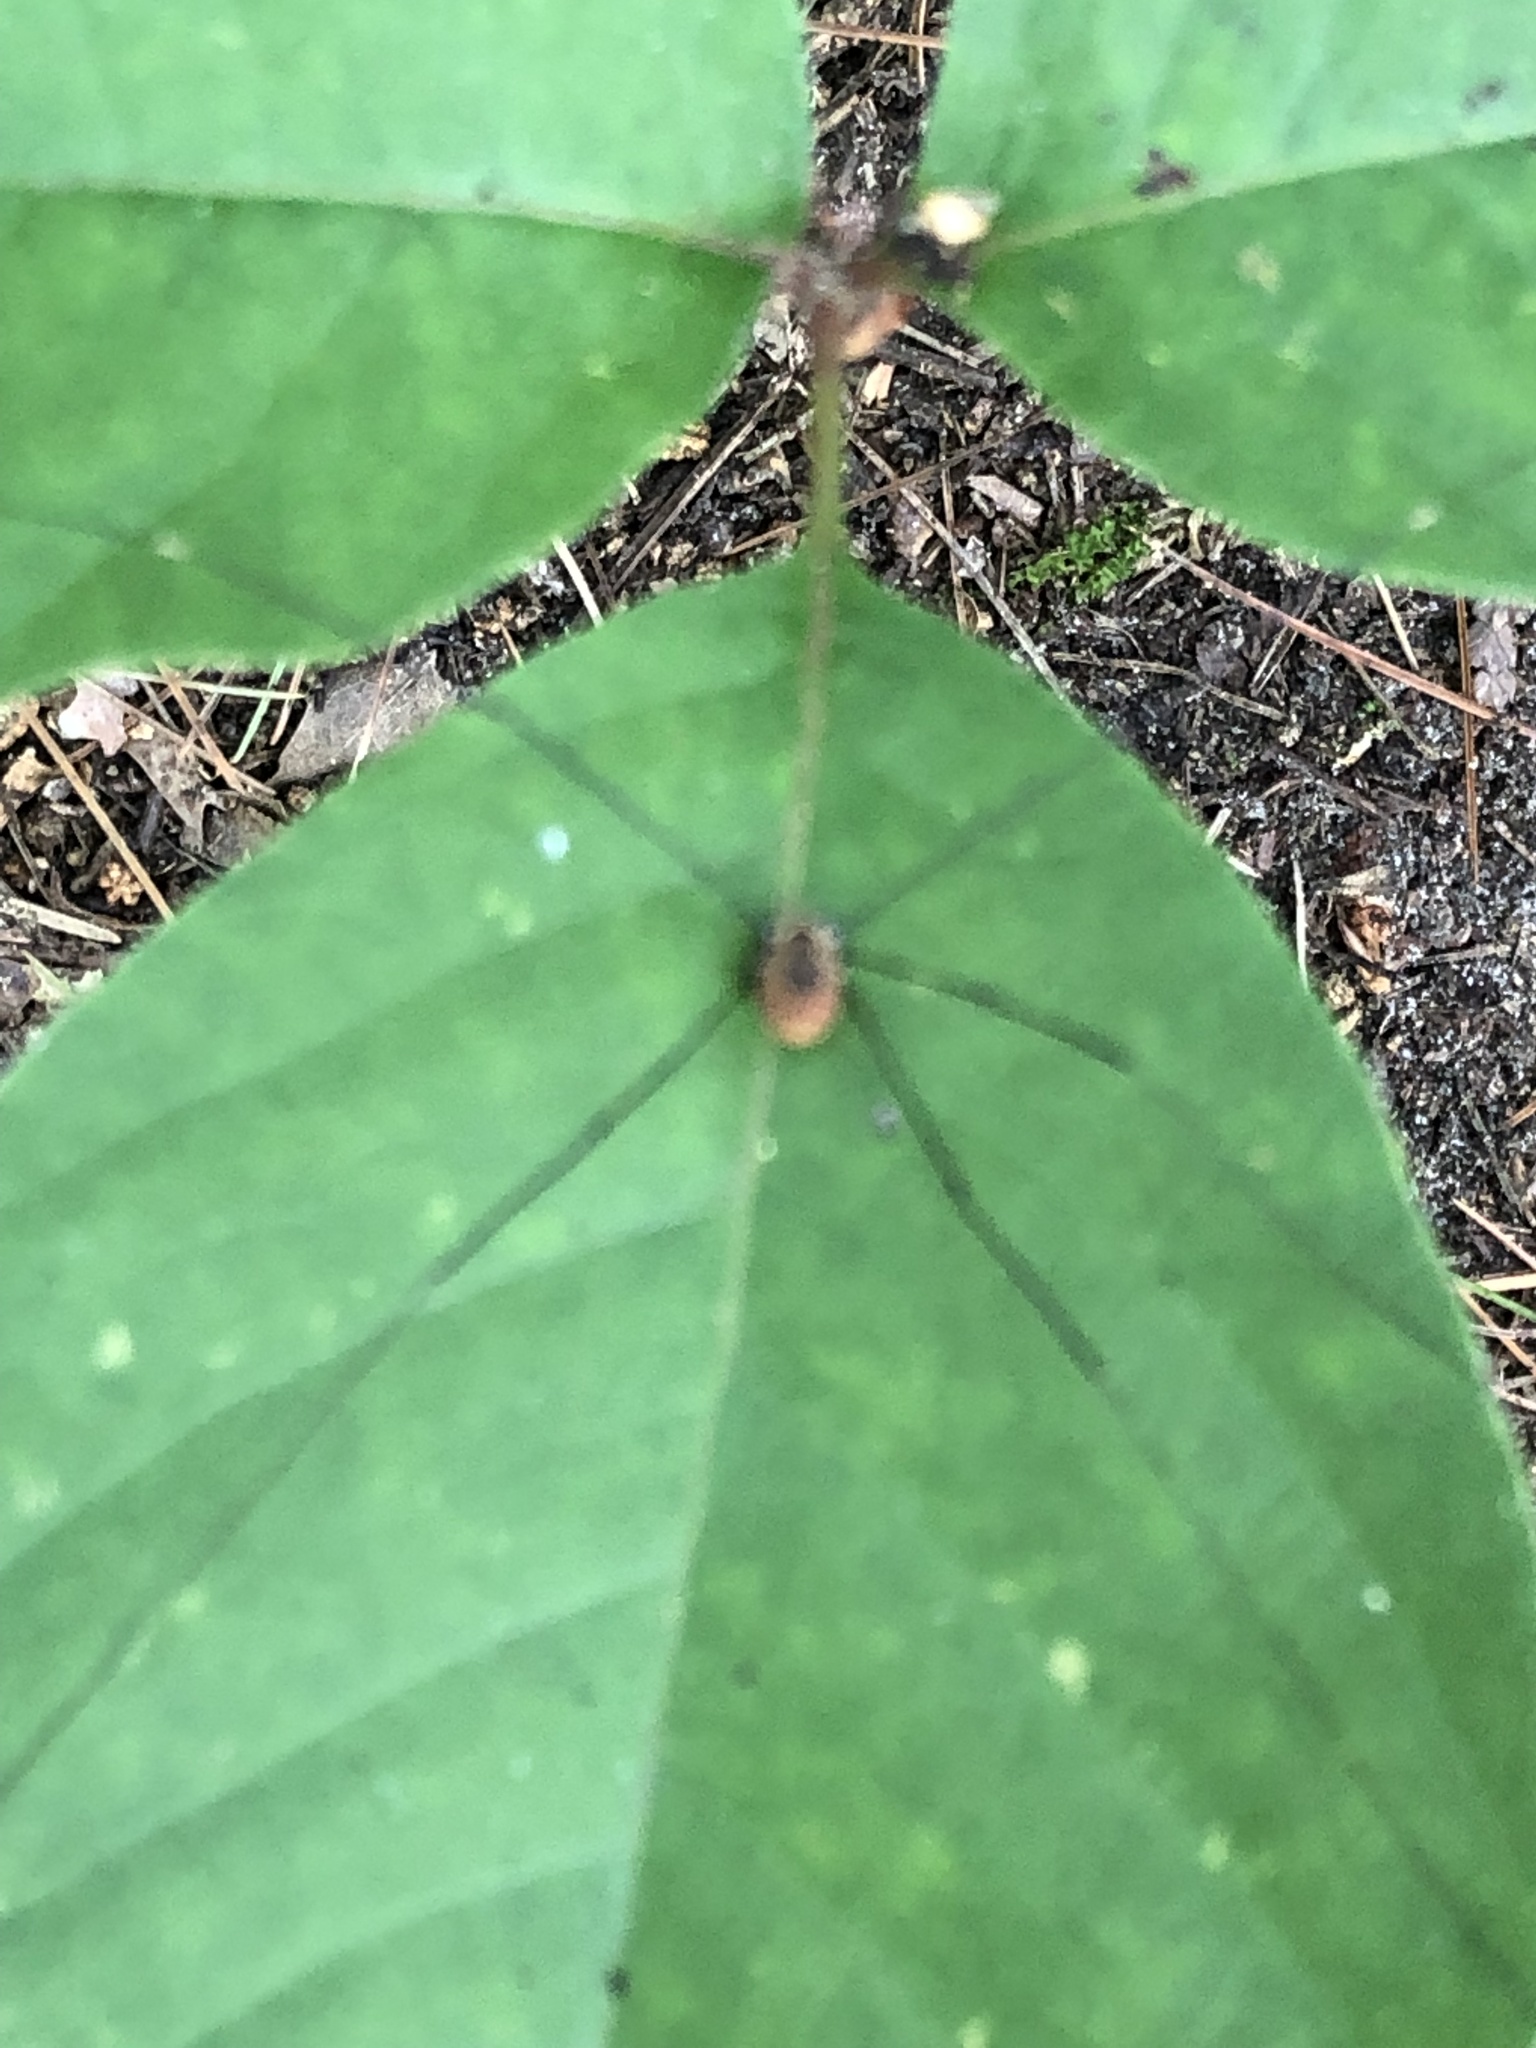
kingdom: Animalia
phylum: Arthropoda
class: Arachnida
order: Opiliones
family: Sclerosomatidae
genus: Leiobunum
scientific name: Leiobunum vittatum
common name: Eastern harvestman
